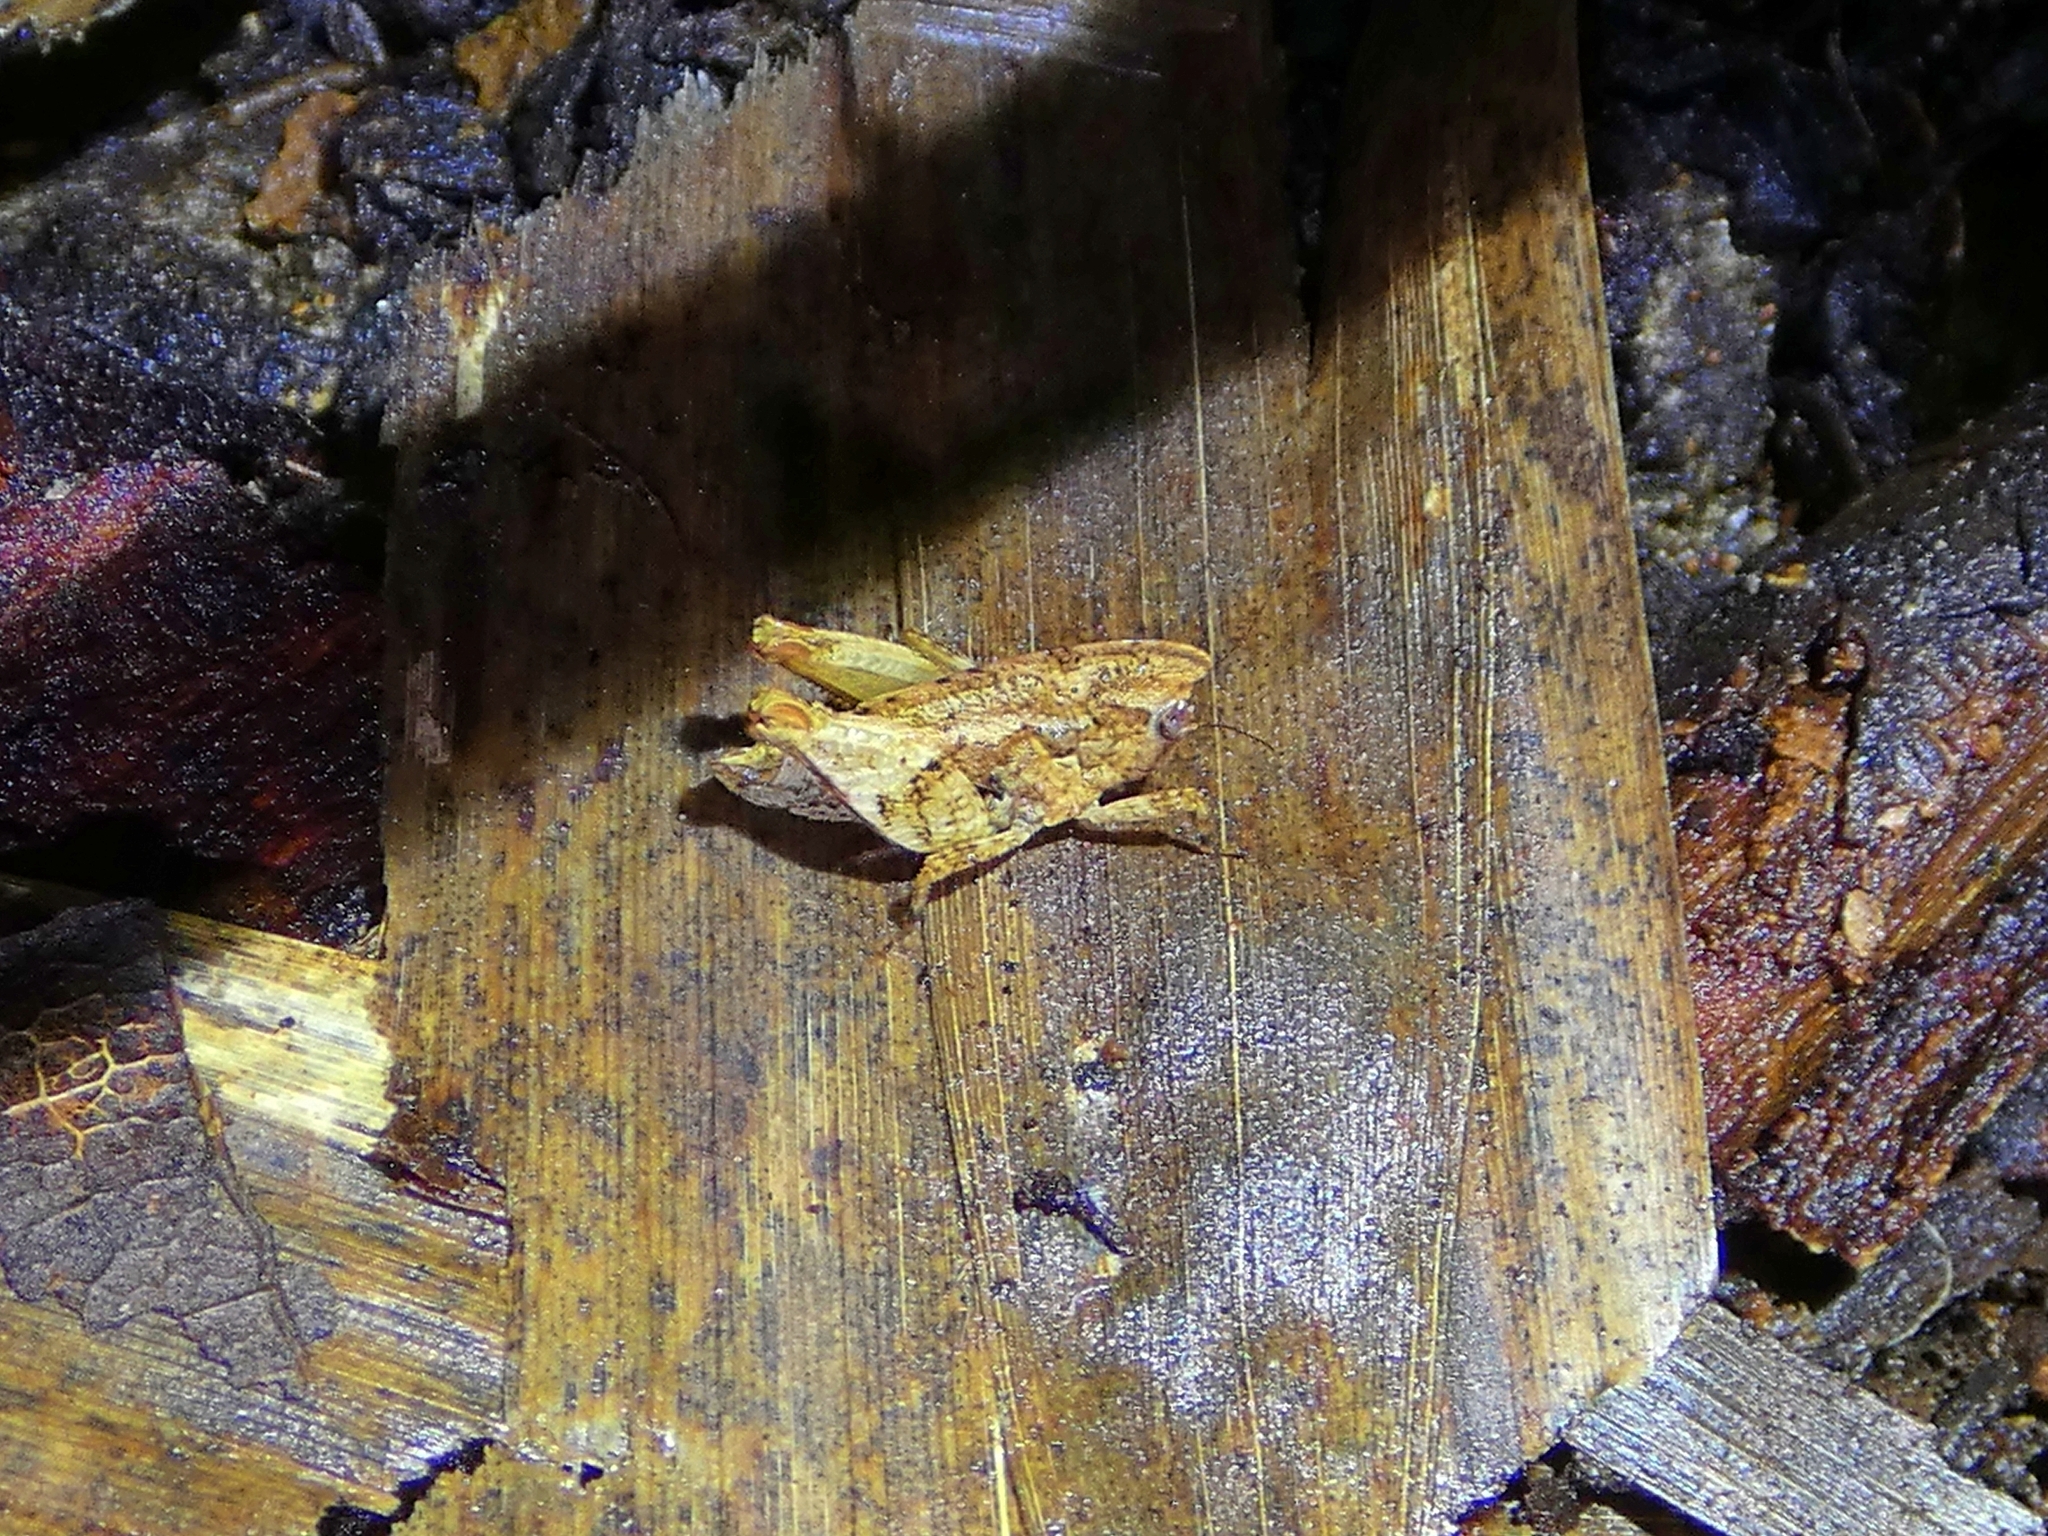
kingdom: Animalia
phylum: Arthropoda
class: Insecta
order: Orthoptera
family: Tetrigidae
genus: Selivinga
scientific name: Selivinga tribulata
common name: Tribulation helmed groundhopper
